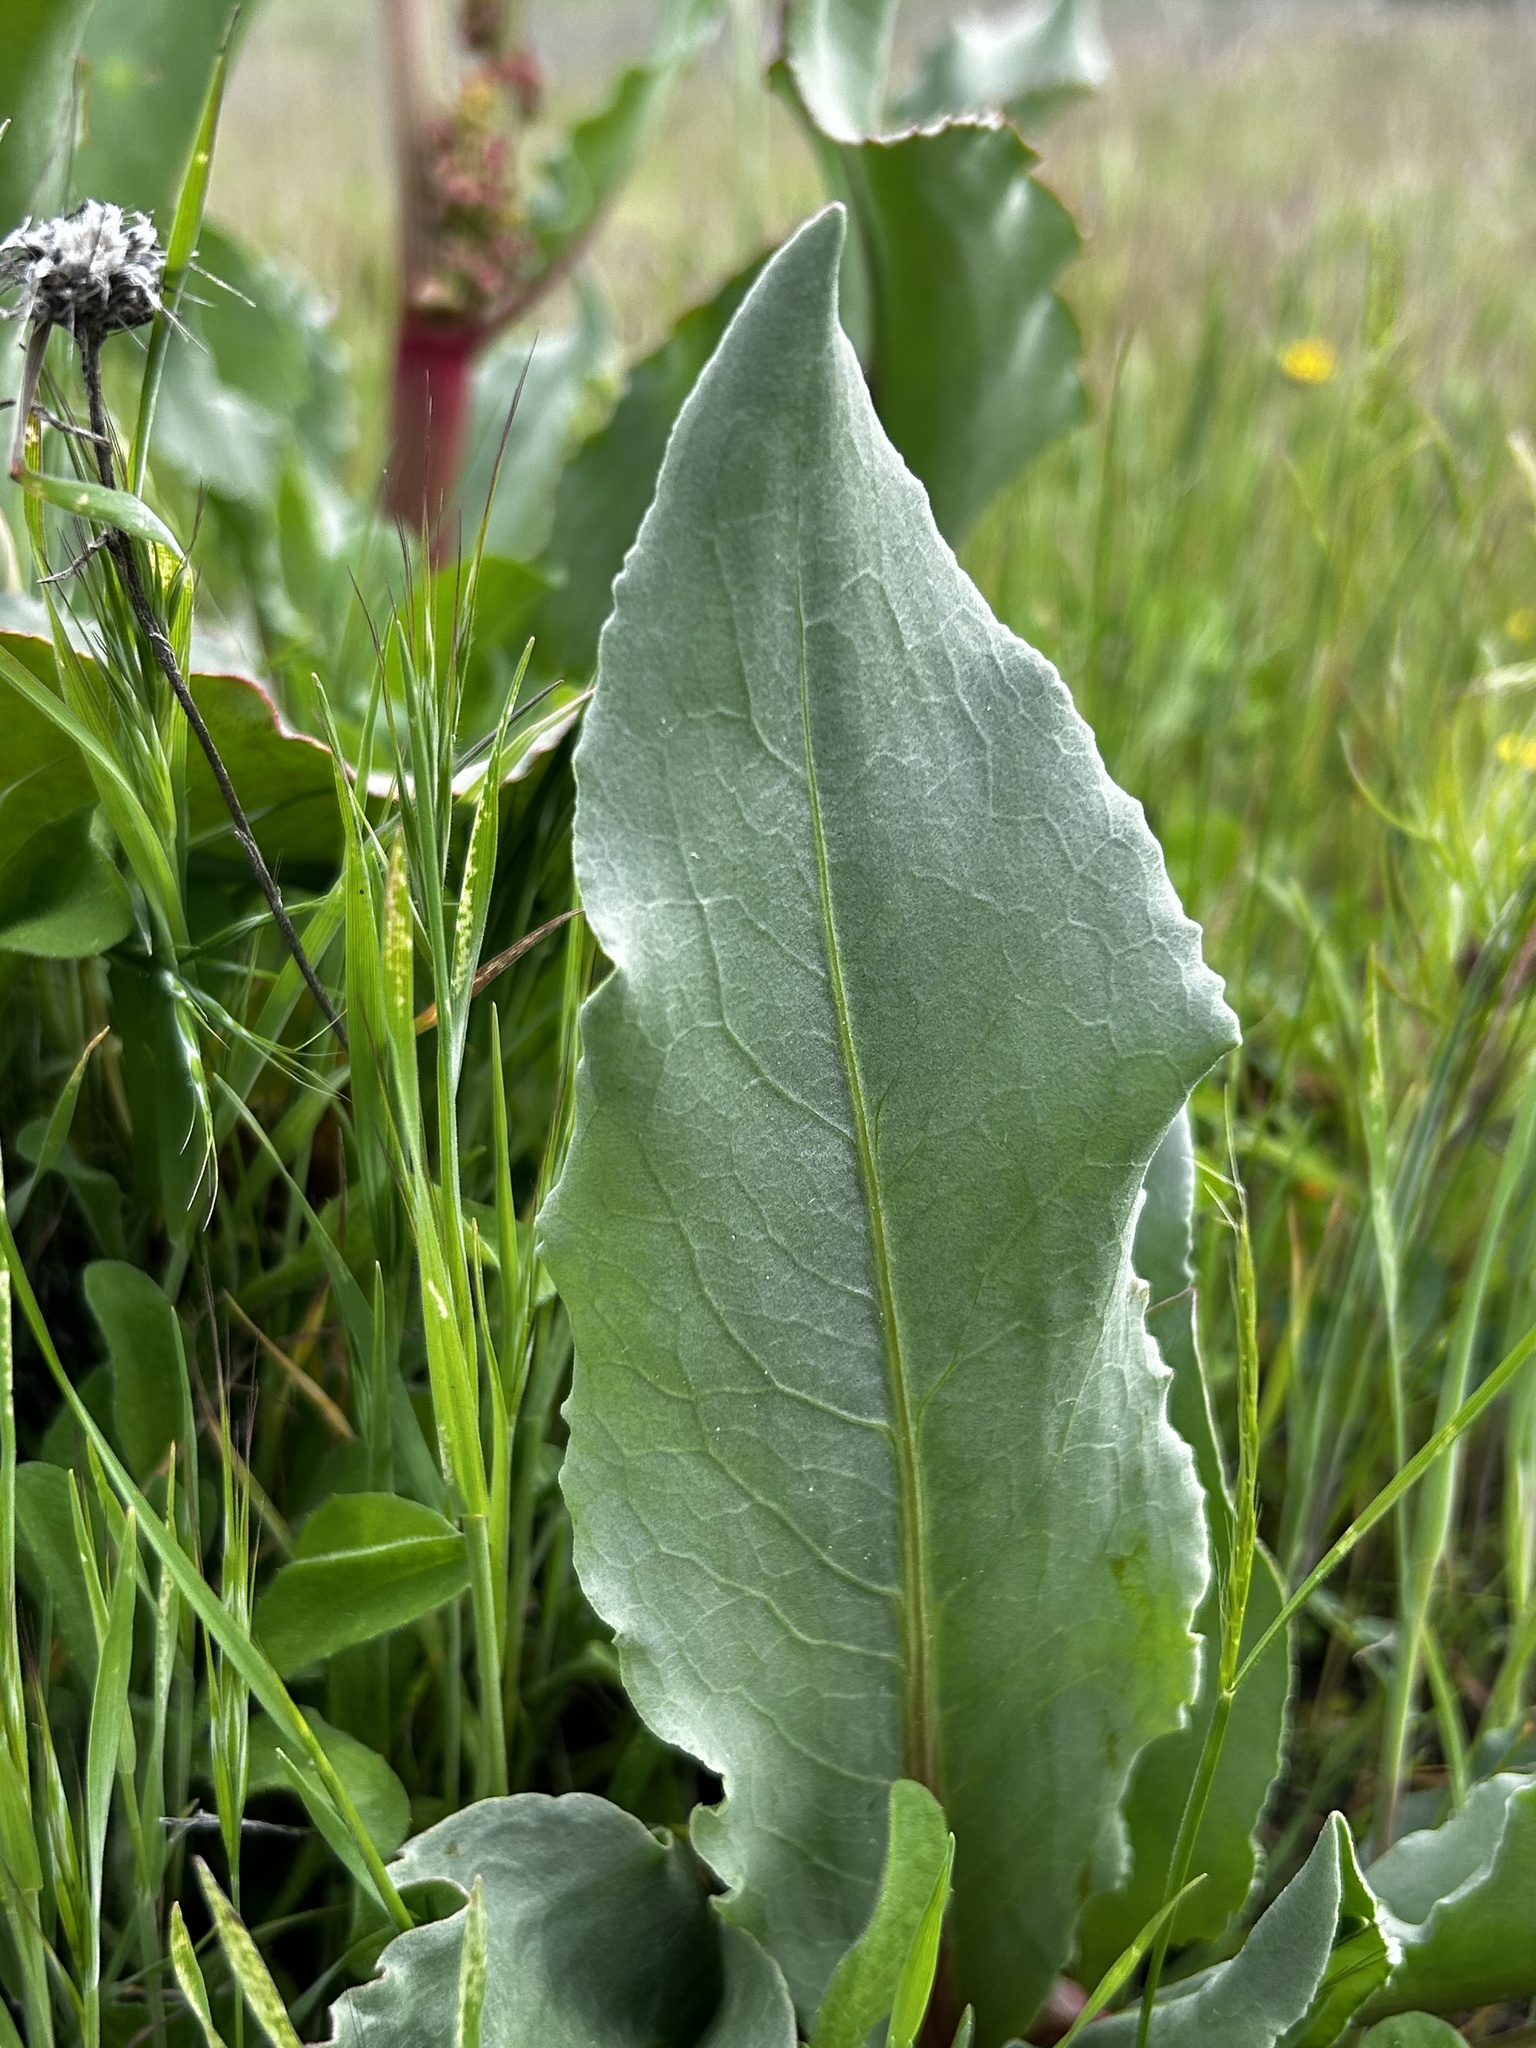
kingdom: Plantae
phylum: Tracheophyta
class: Magnoliopsida
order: Caryophyllales
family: Polygonaceae
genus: Rumex
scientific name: Rumex hymenosepalus
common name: Ganagra
